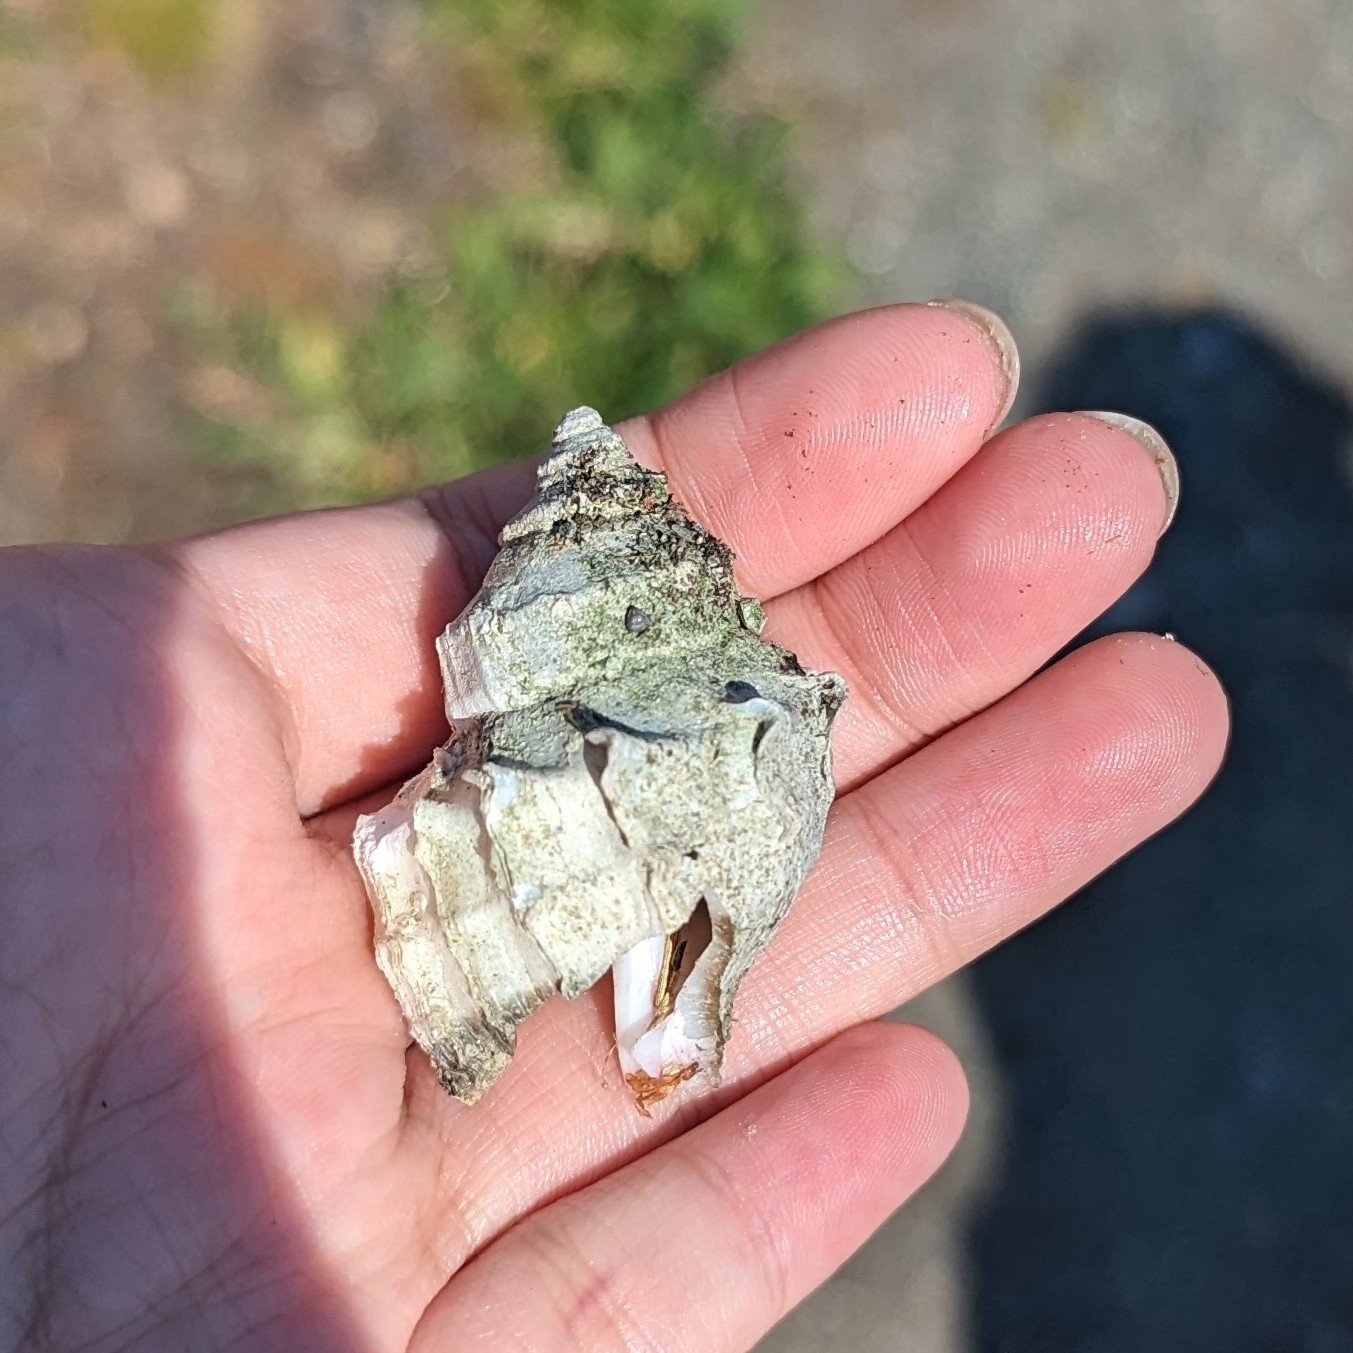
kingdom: Animalia
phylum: Mollusca
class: Gastropoda
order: Neogastropoda
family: Muricidae
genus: Nucella
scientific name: Nucella lamellosa
